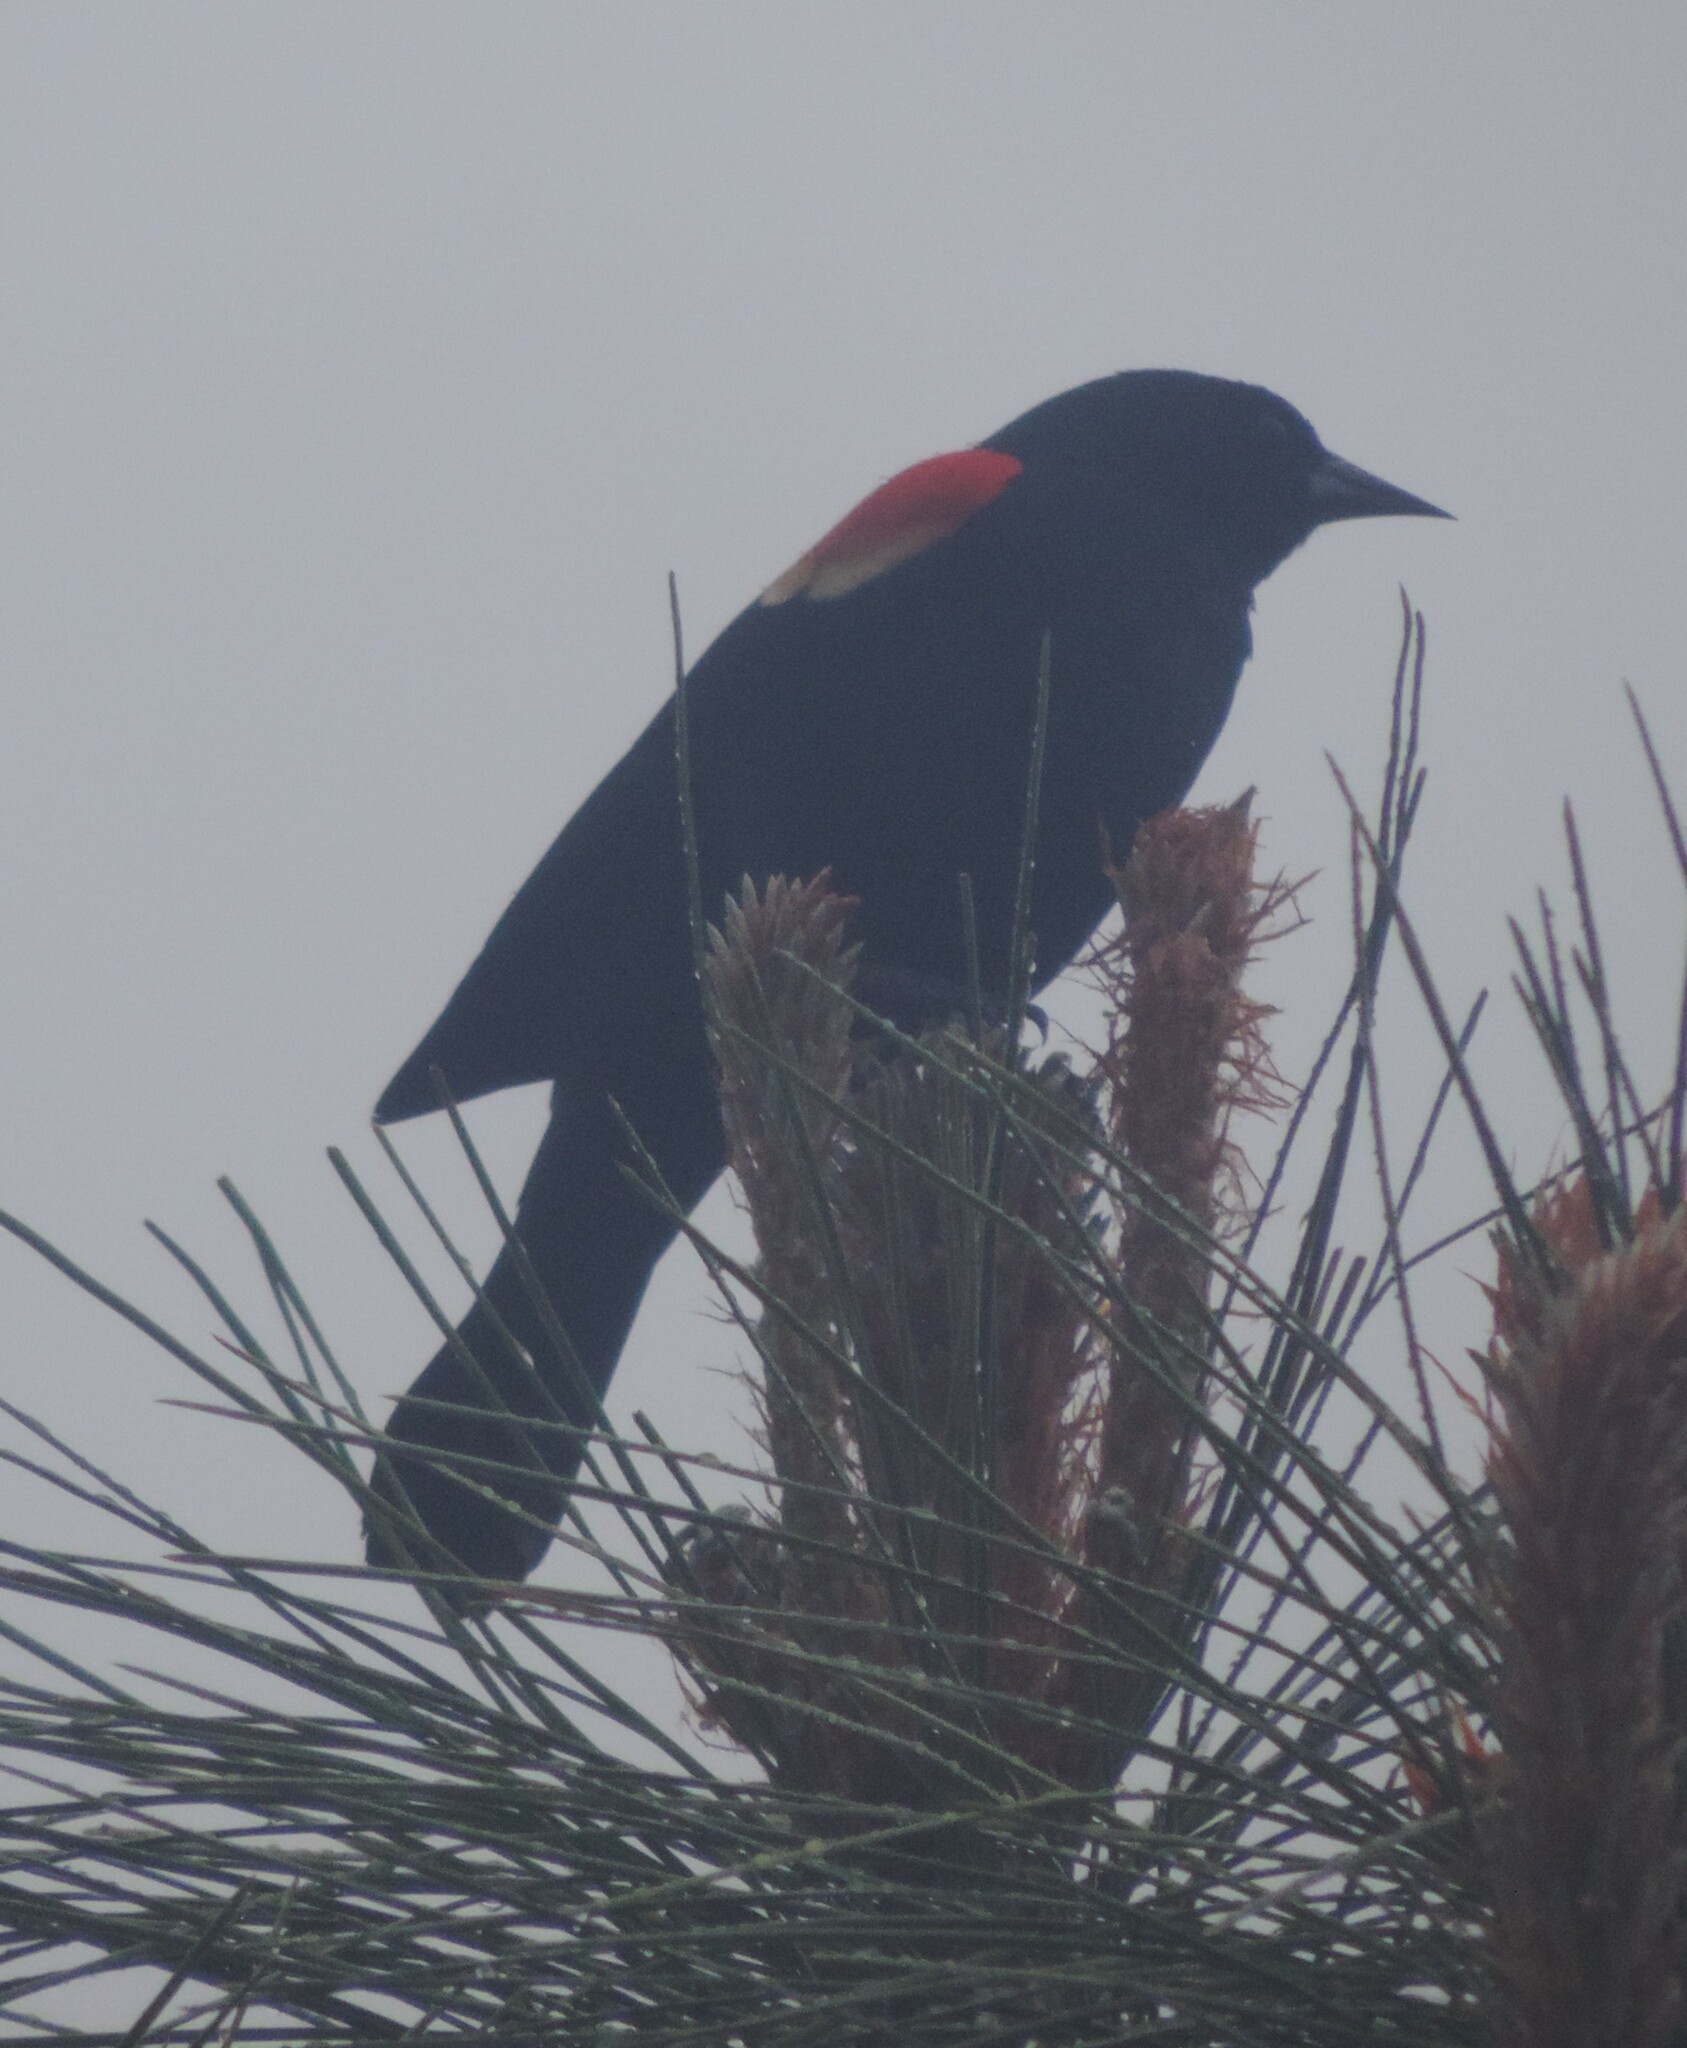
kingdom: Animalia
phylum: Chordata
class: Aves
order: Passeriformes
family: Icteridae
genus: Agelaius
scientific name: Agelaius phoeniceus
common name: Red-winged blackbird
